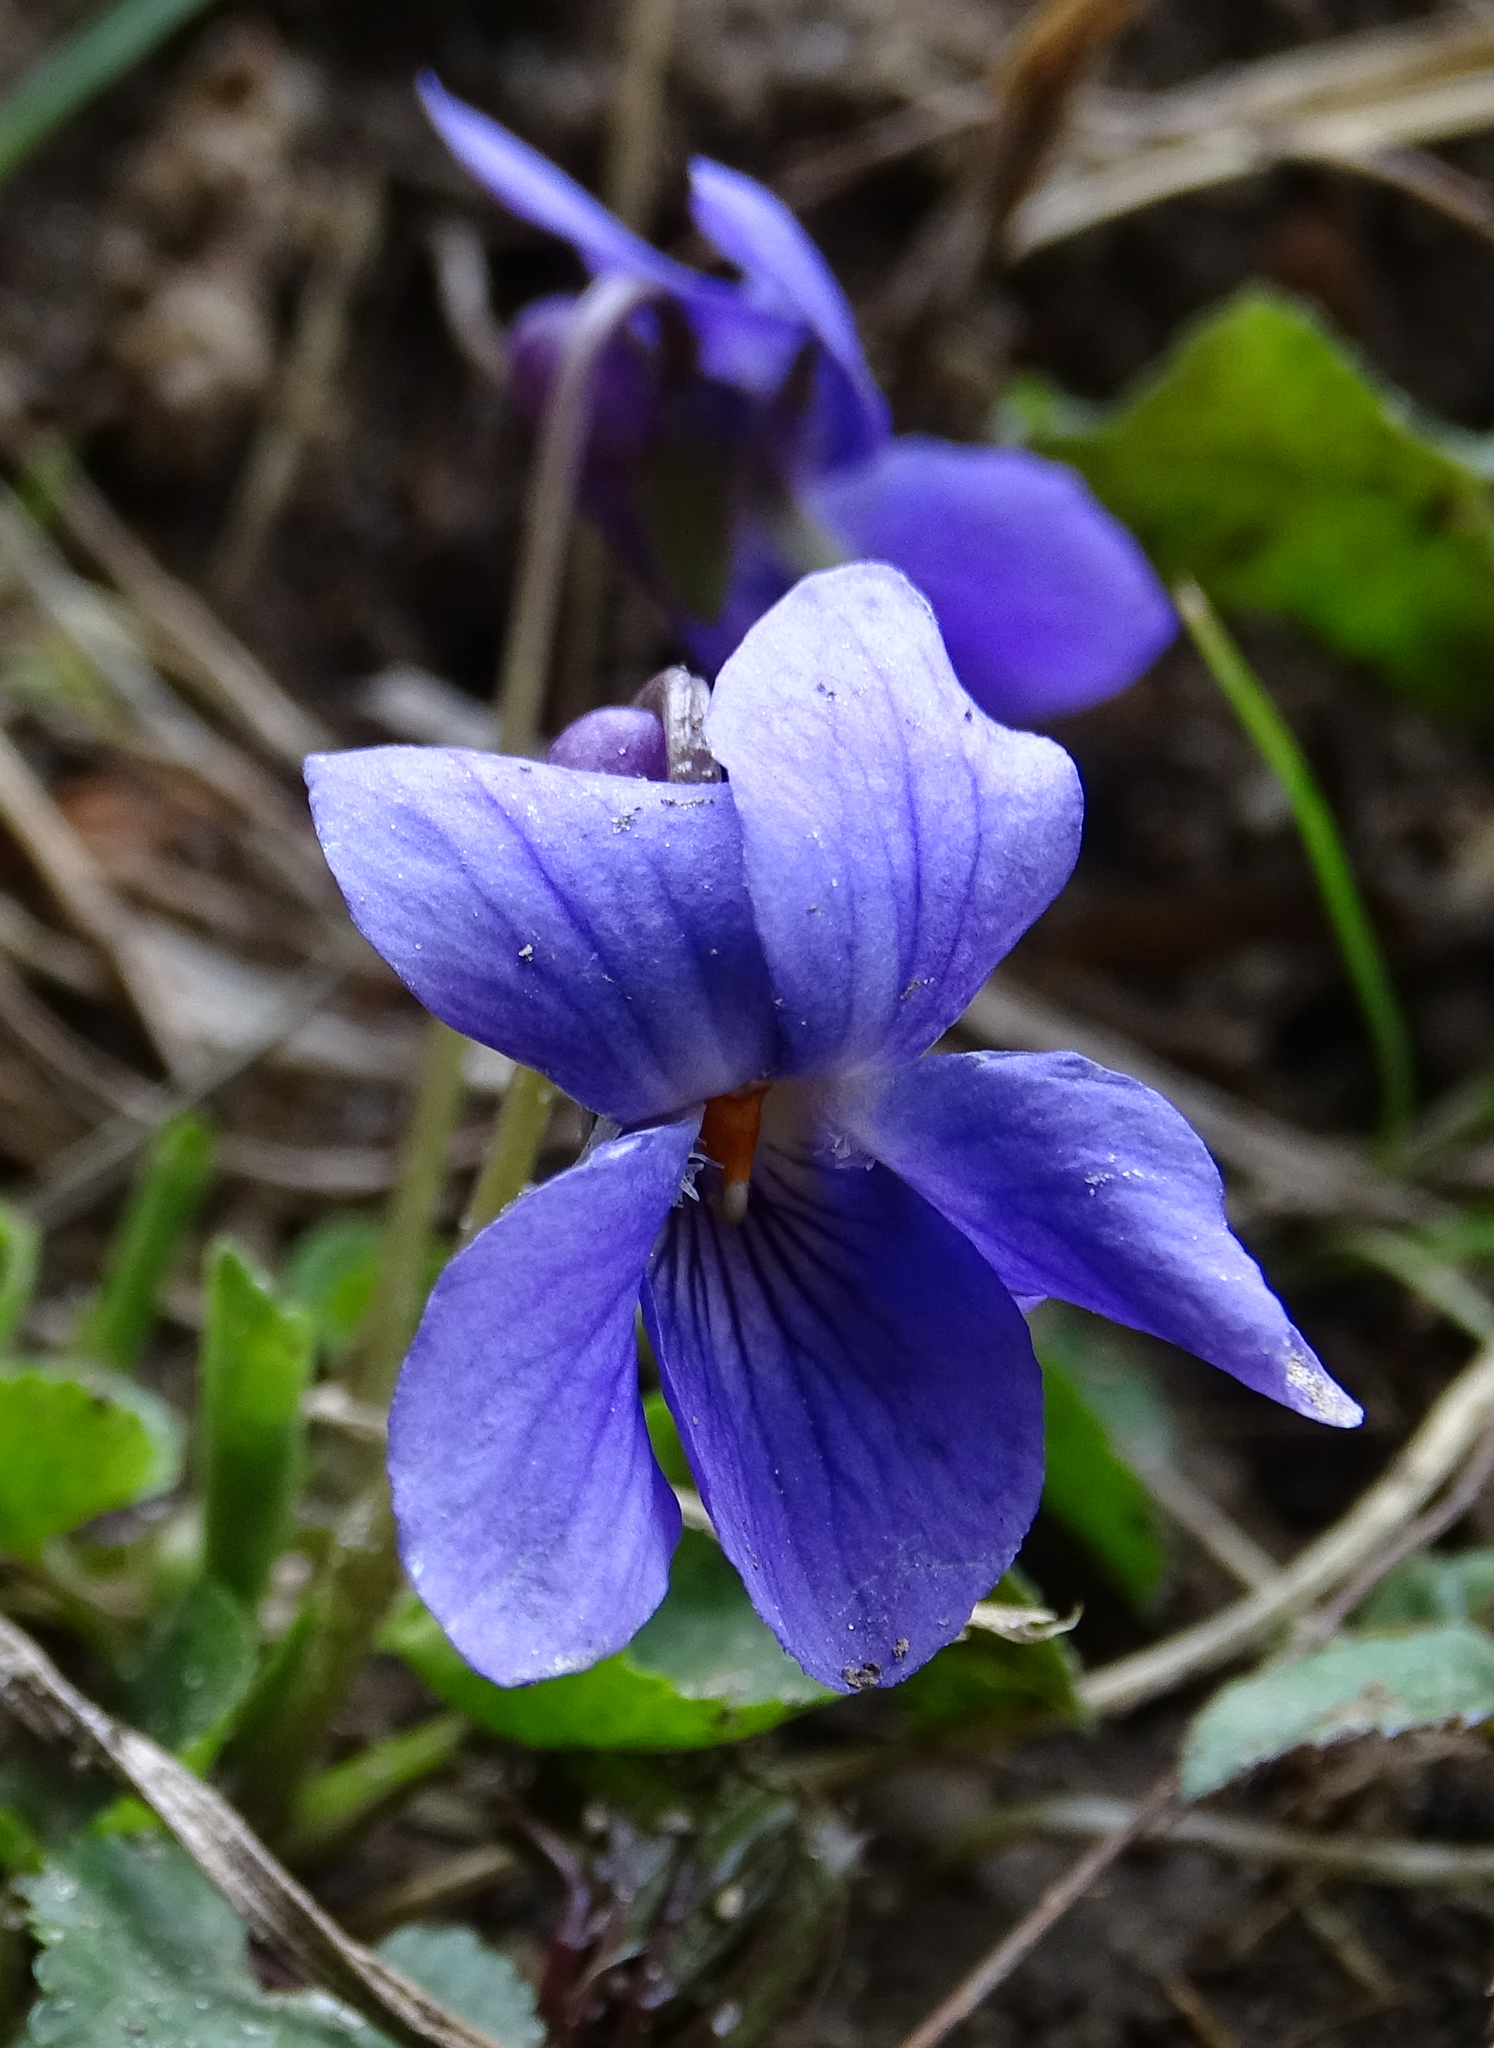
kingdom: Plantae
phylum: Tracheophyta
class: Magnoliopsida
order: Malpighiales
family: Violaceae
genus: Viola
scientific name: Viola odorata
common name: Sweet violet
